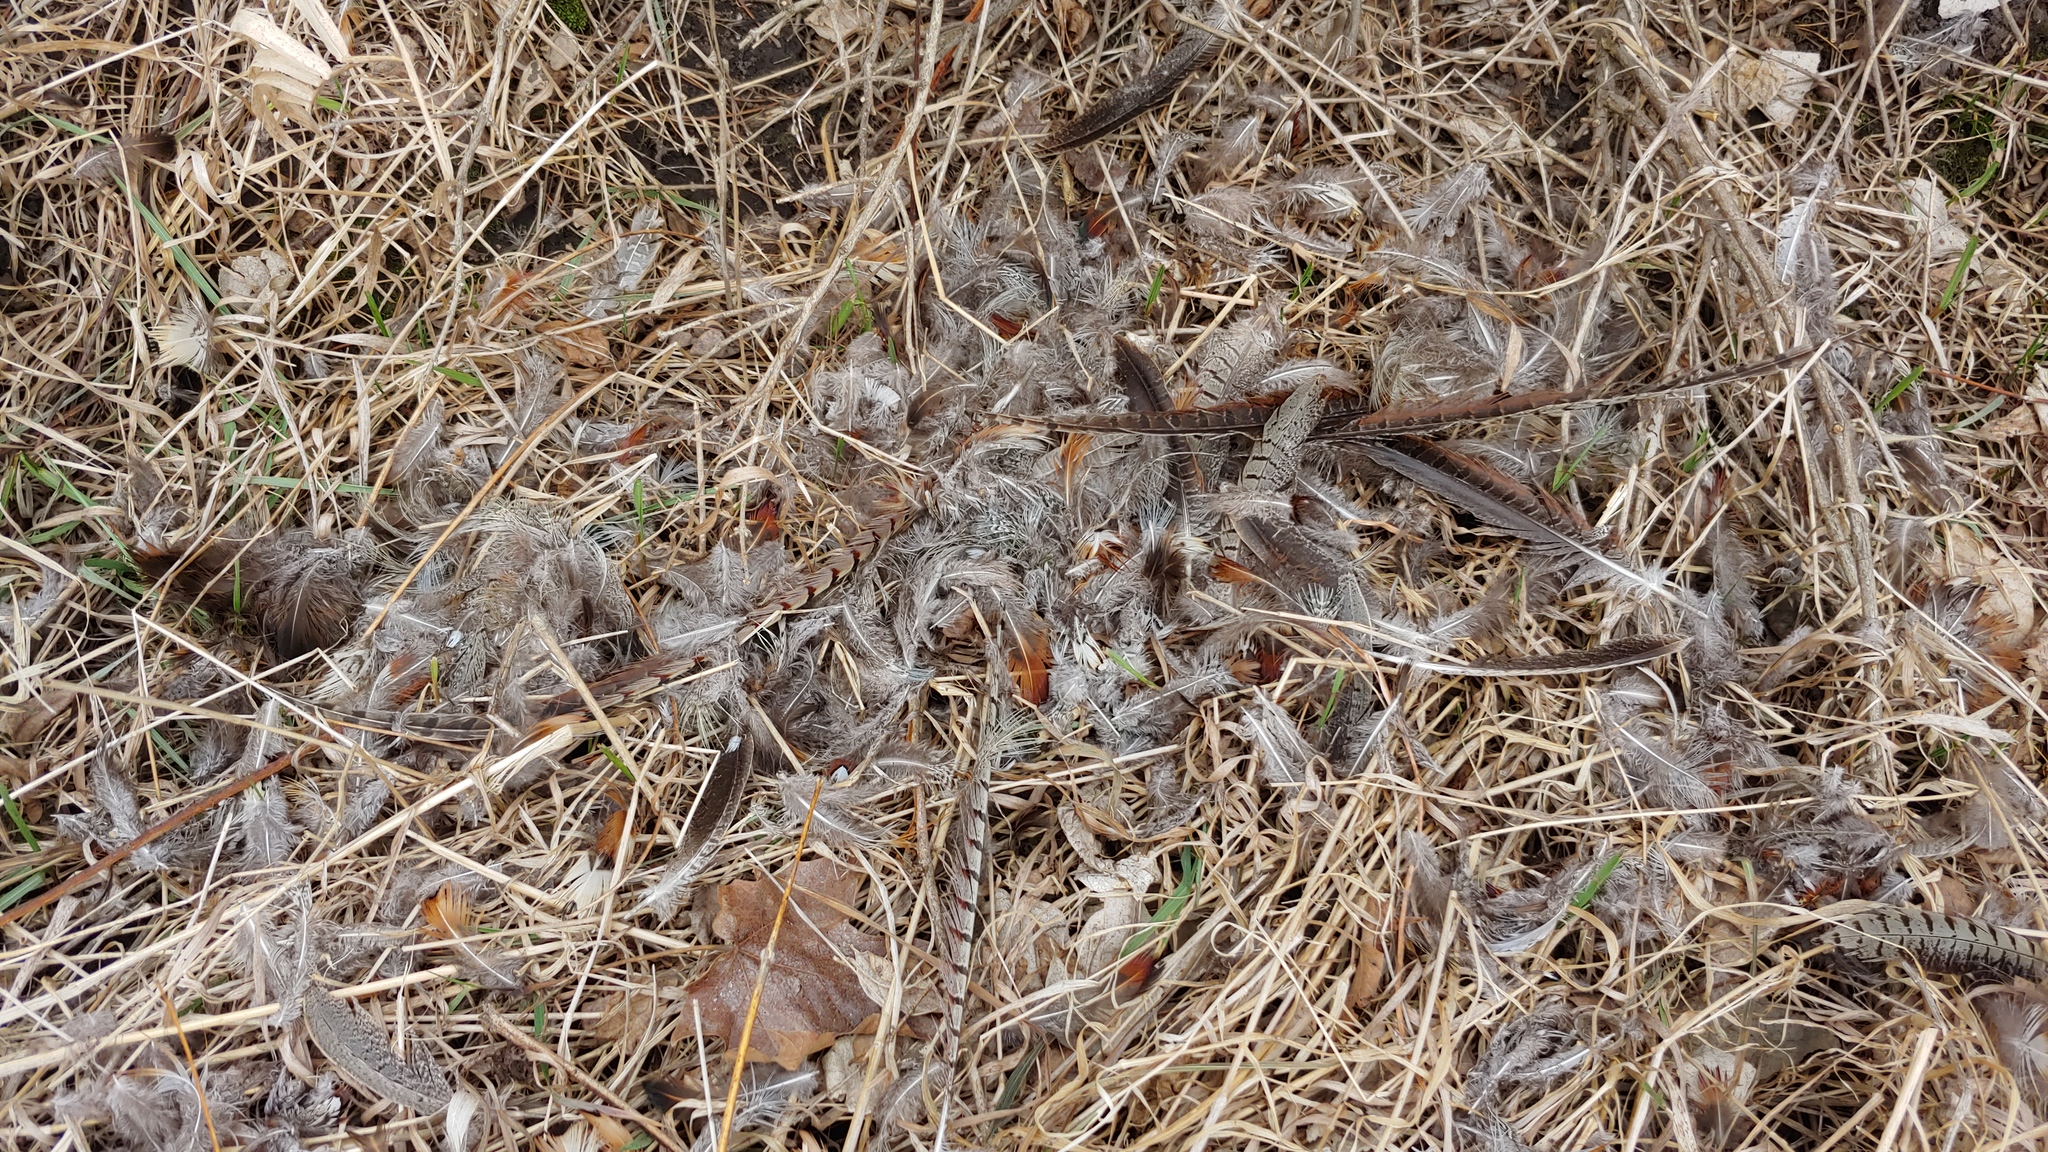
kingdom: Animalia
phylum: Chordata
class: Aves
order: Galliformes
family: Phasianidae
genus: Phasianus
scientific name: Phasianus colchicus
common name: Common pheasant
